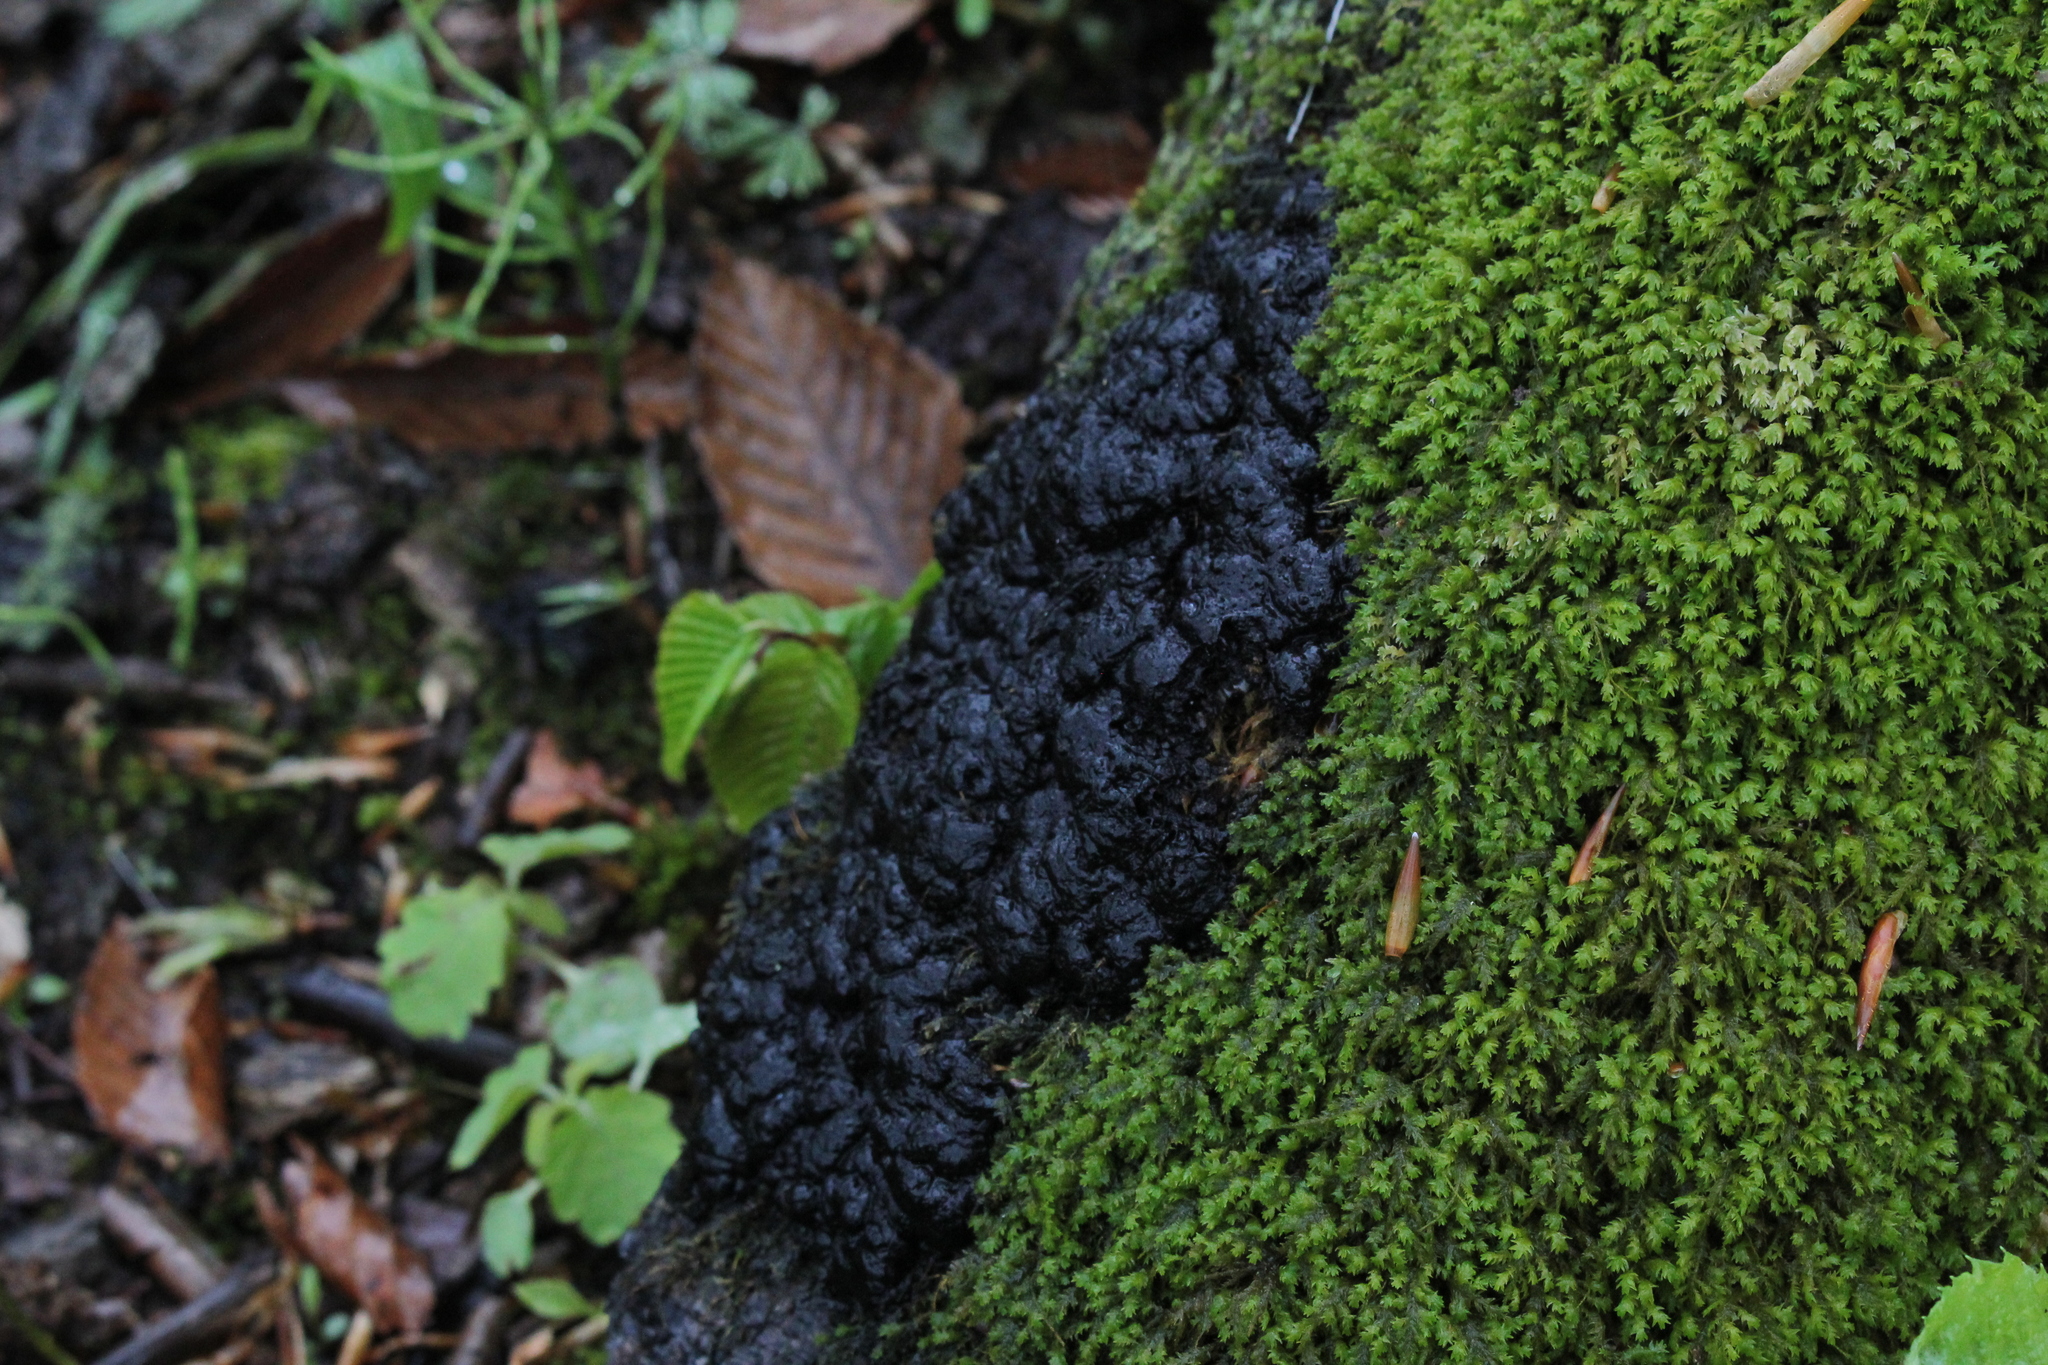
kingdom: Fungi
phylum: Basidiomycota
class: Agaricomycetes
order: Auriculariales
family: Auriculariaceae
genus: Exidia
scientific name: Exidia glandulosa
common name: Witches' butter
